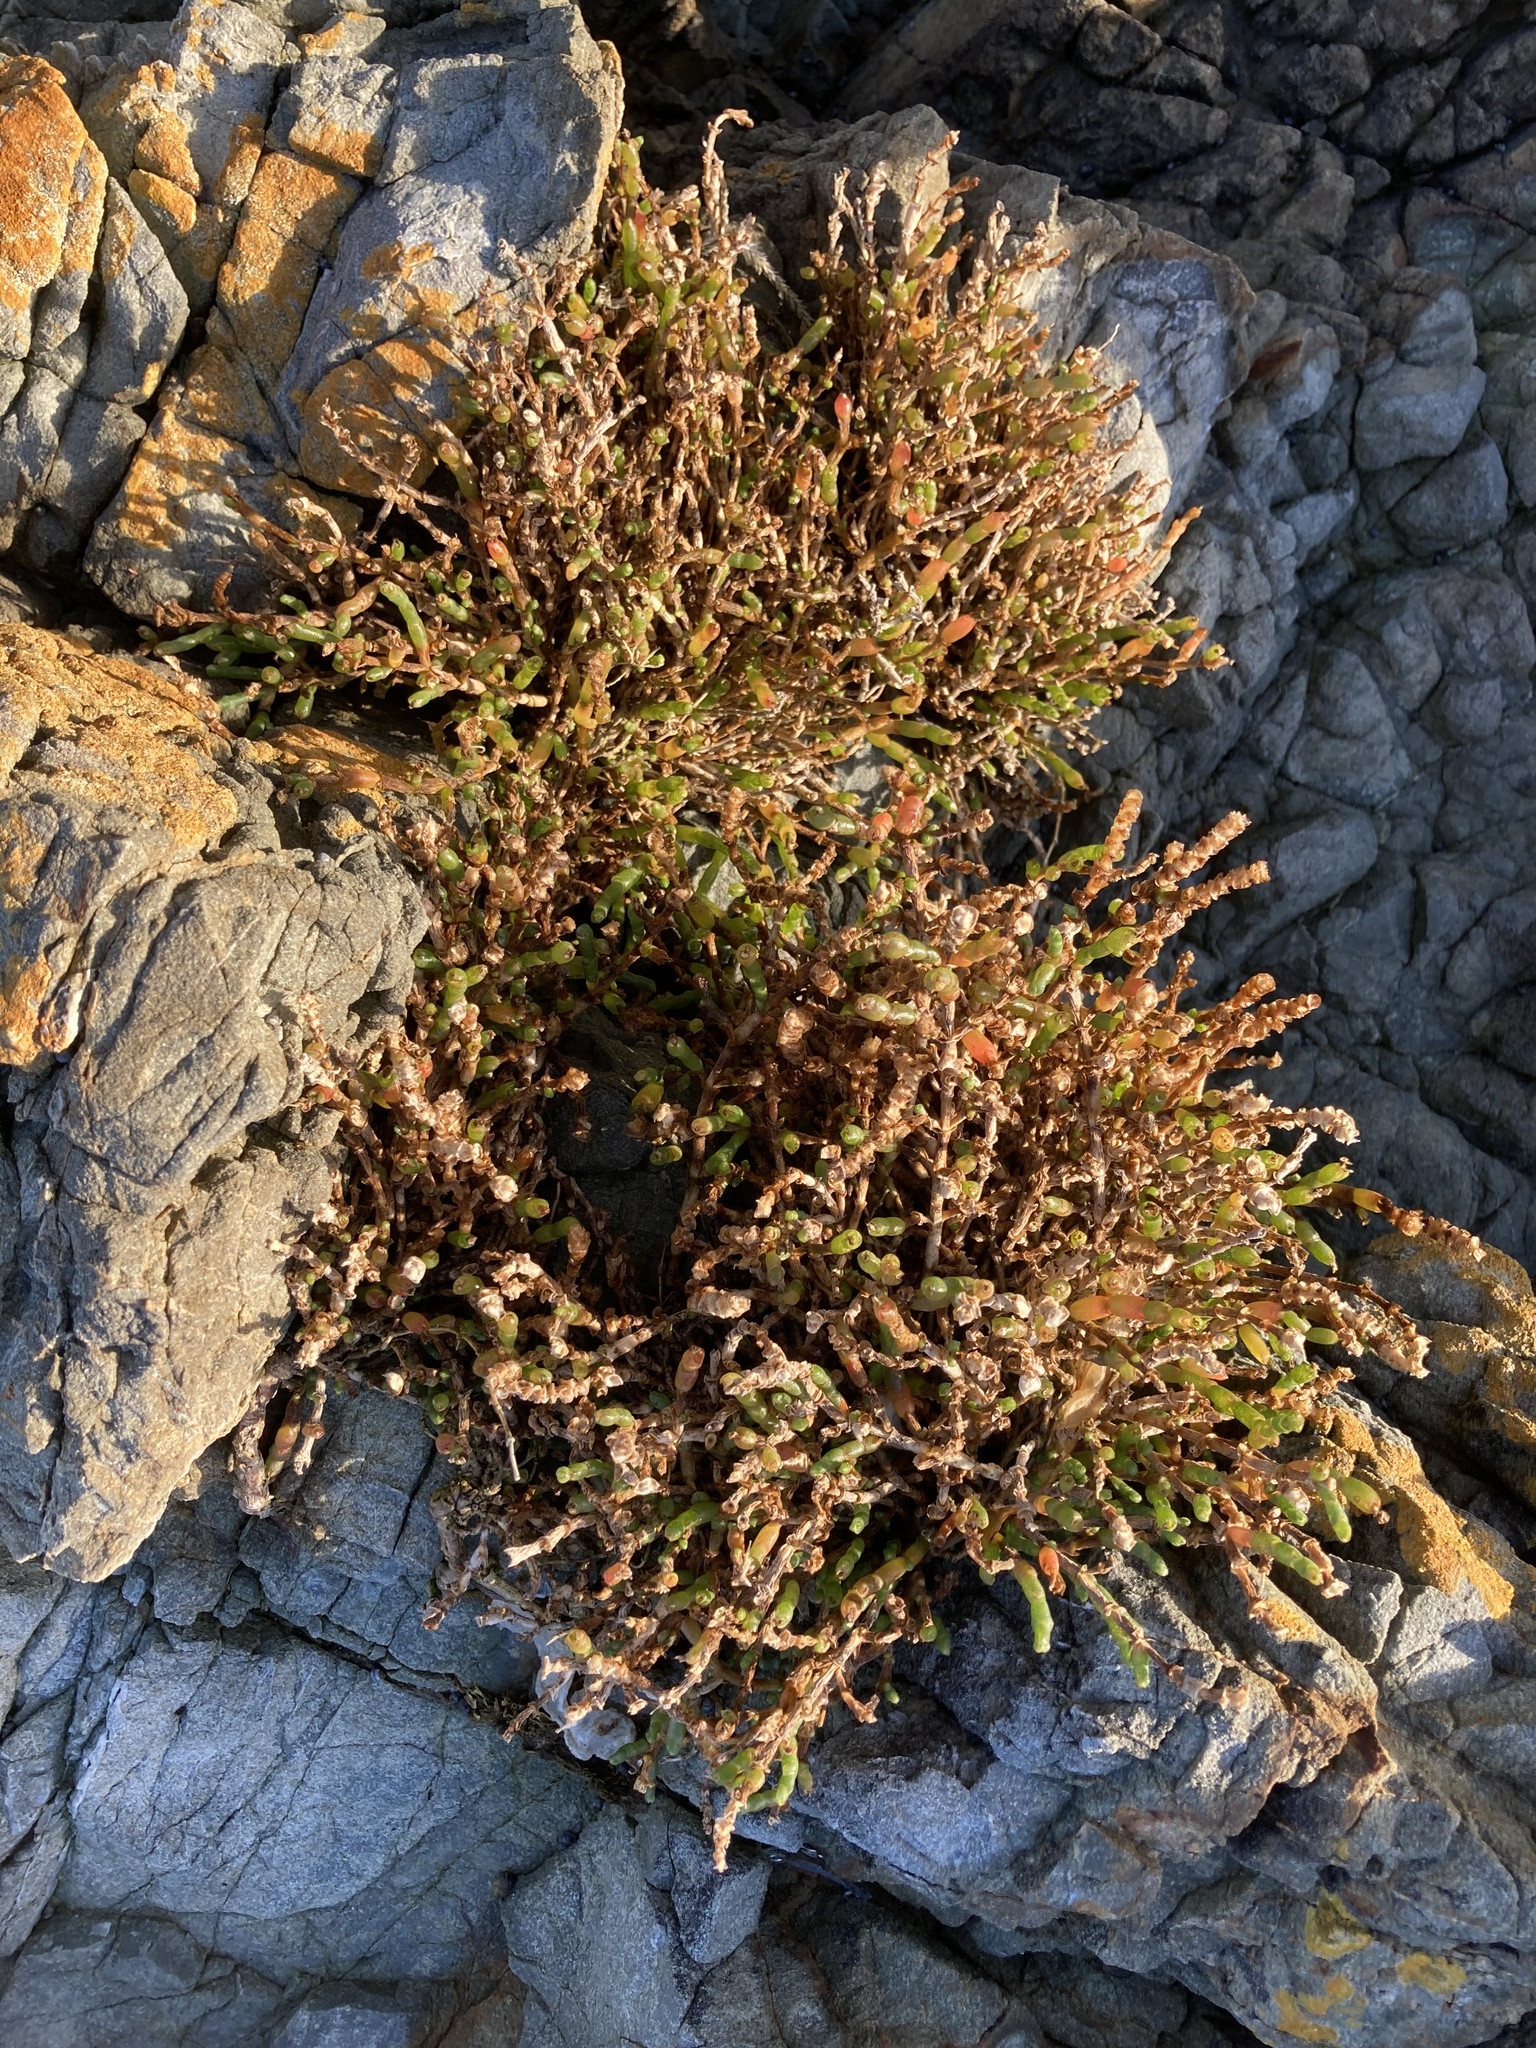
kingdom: Plantae
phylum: Tracheophyta
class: Magnoliopsida
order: Caryophyllales
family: Amaranthaceae
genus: Salicornia
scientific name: Salicornia quinqueflora
